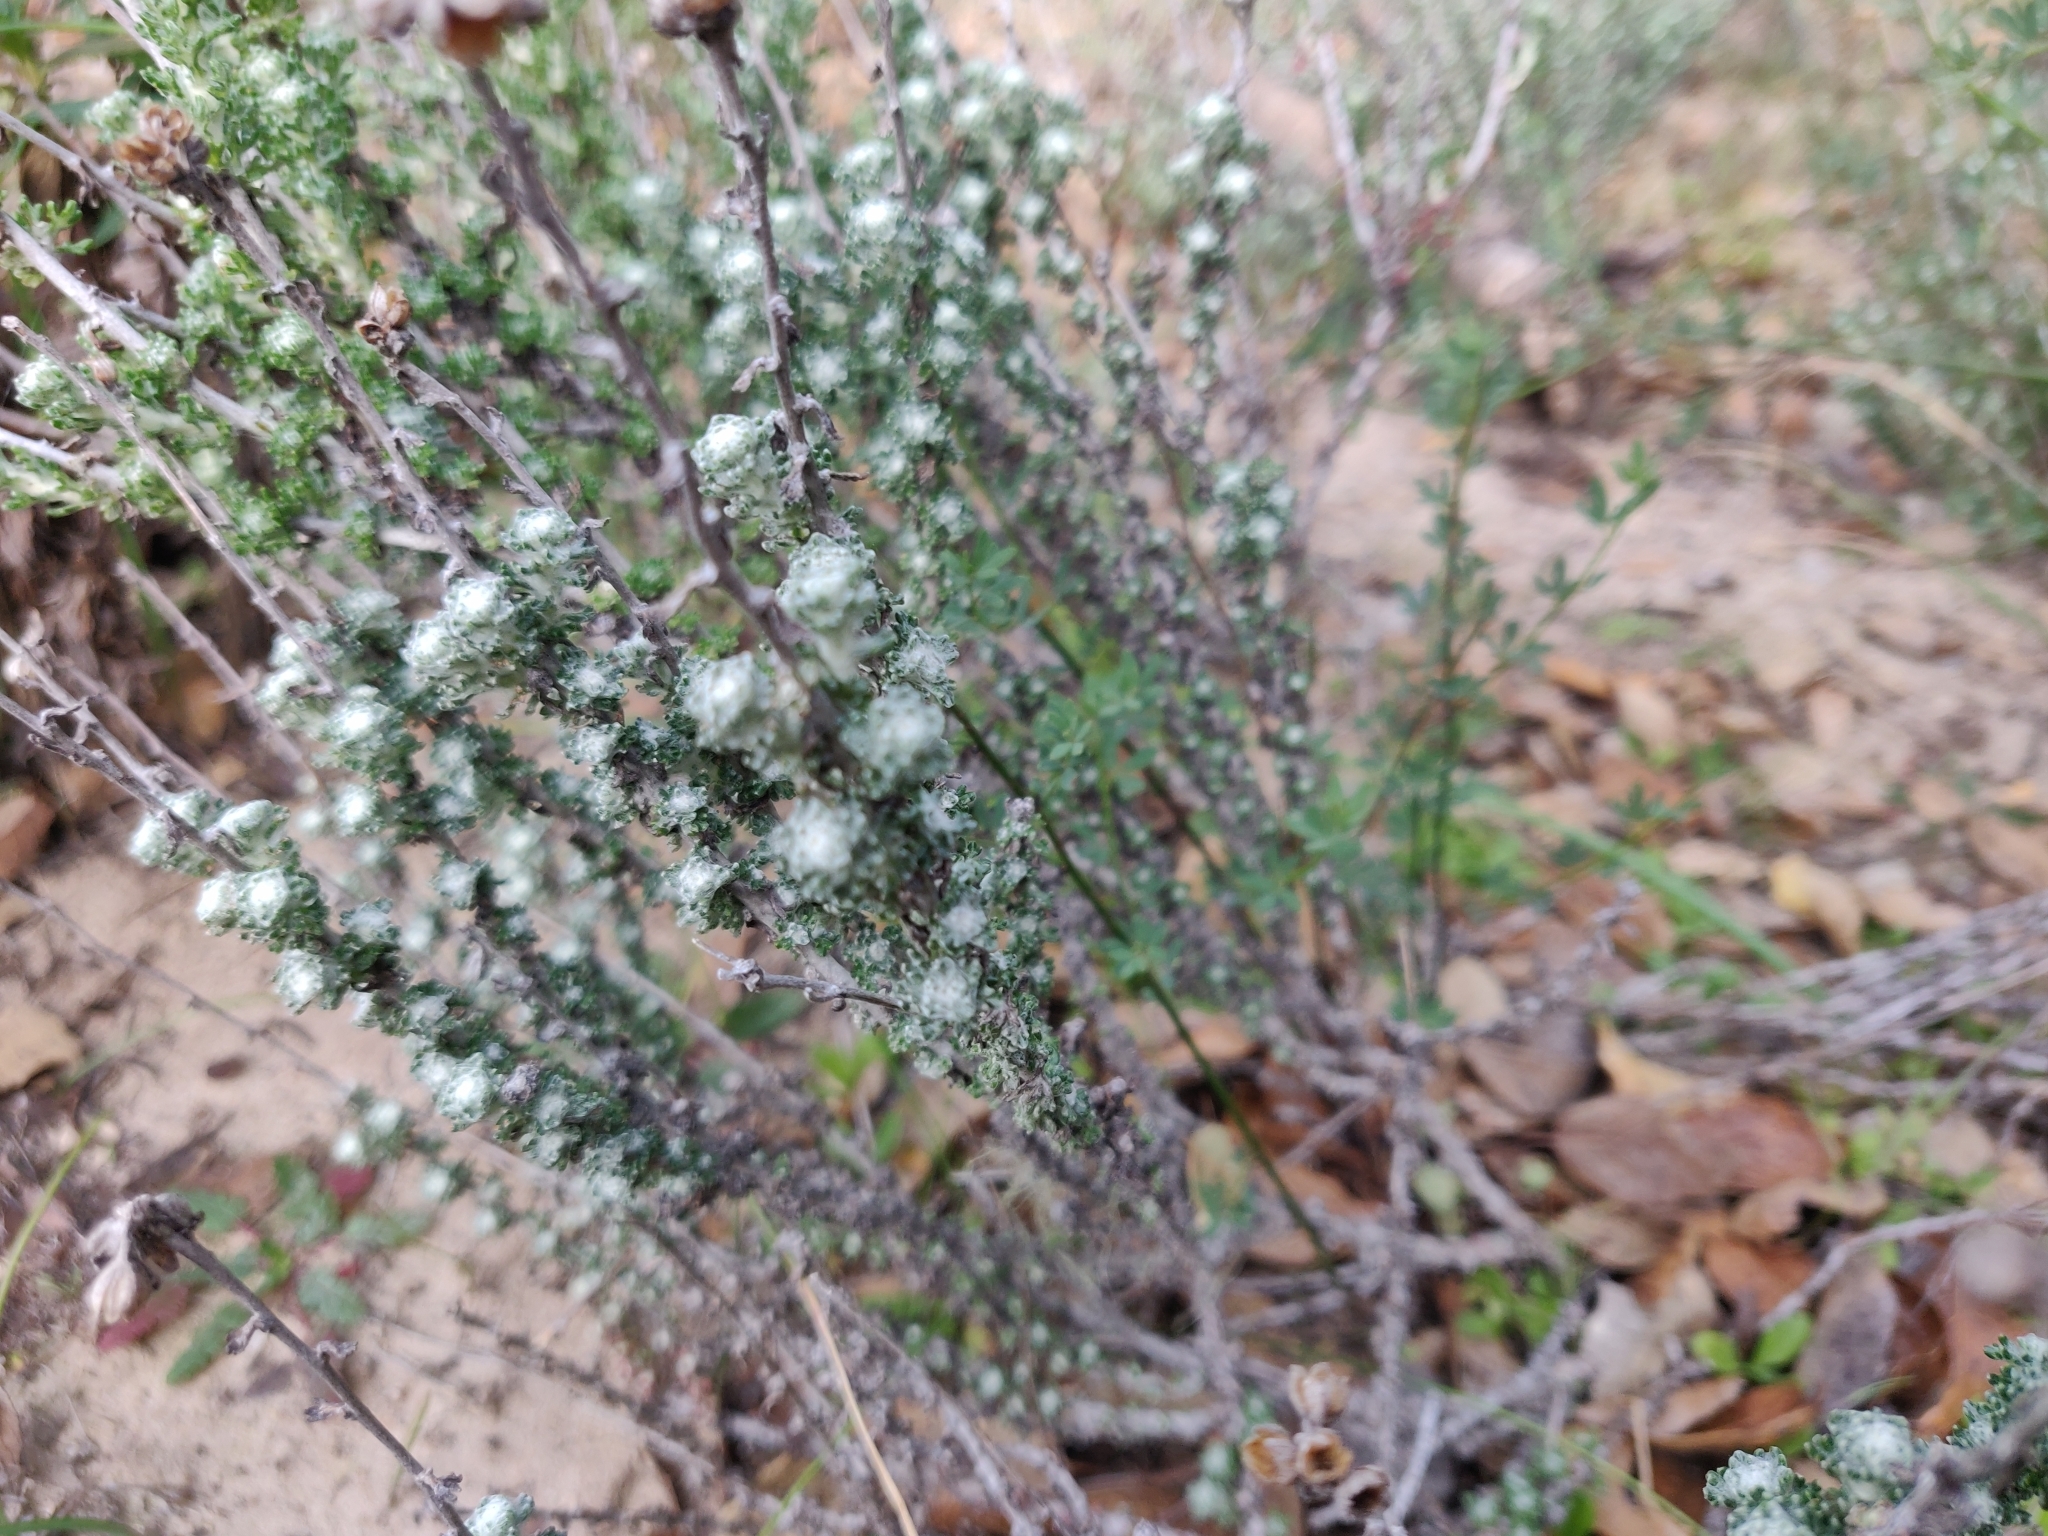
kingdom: Plantae
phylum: Tracheophyta
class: Magnoliopsida
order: Asterales
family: Asteraceae
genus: Eriophyllum
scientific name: Eriophyllum confertiflorum
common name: Golden-yarrow
